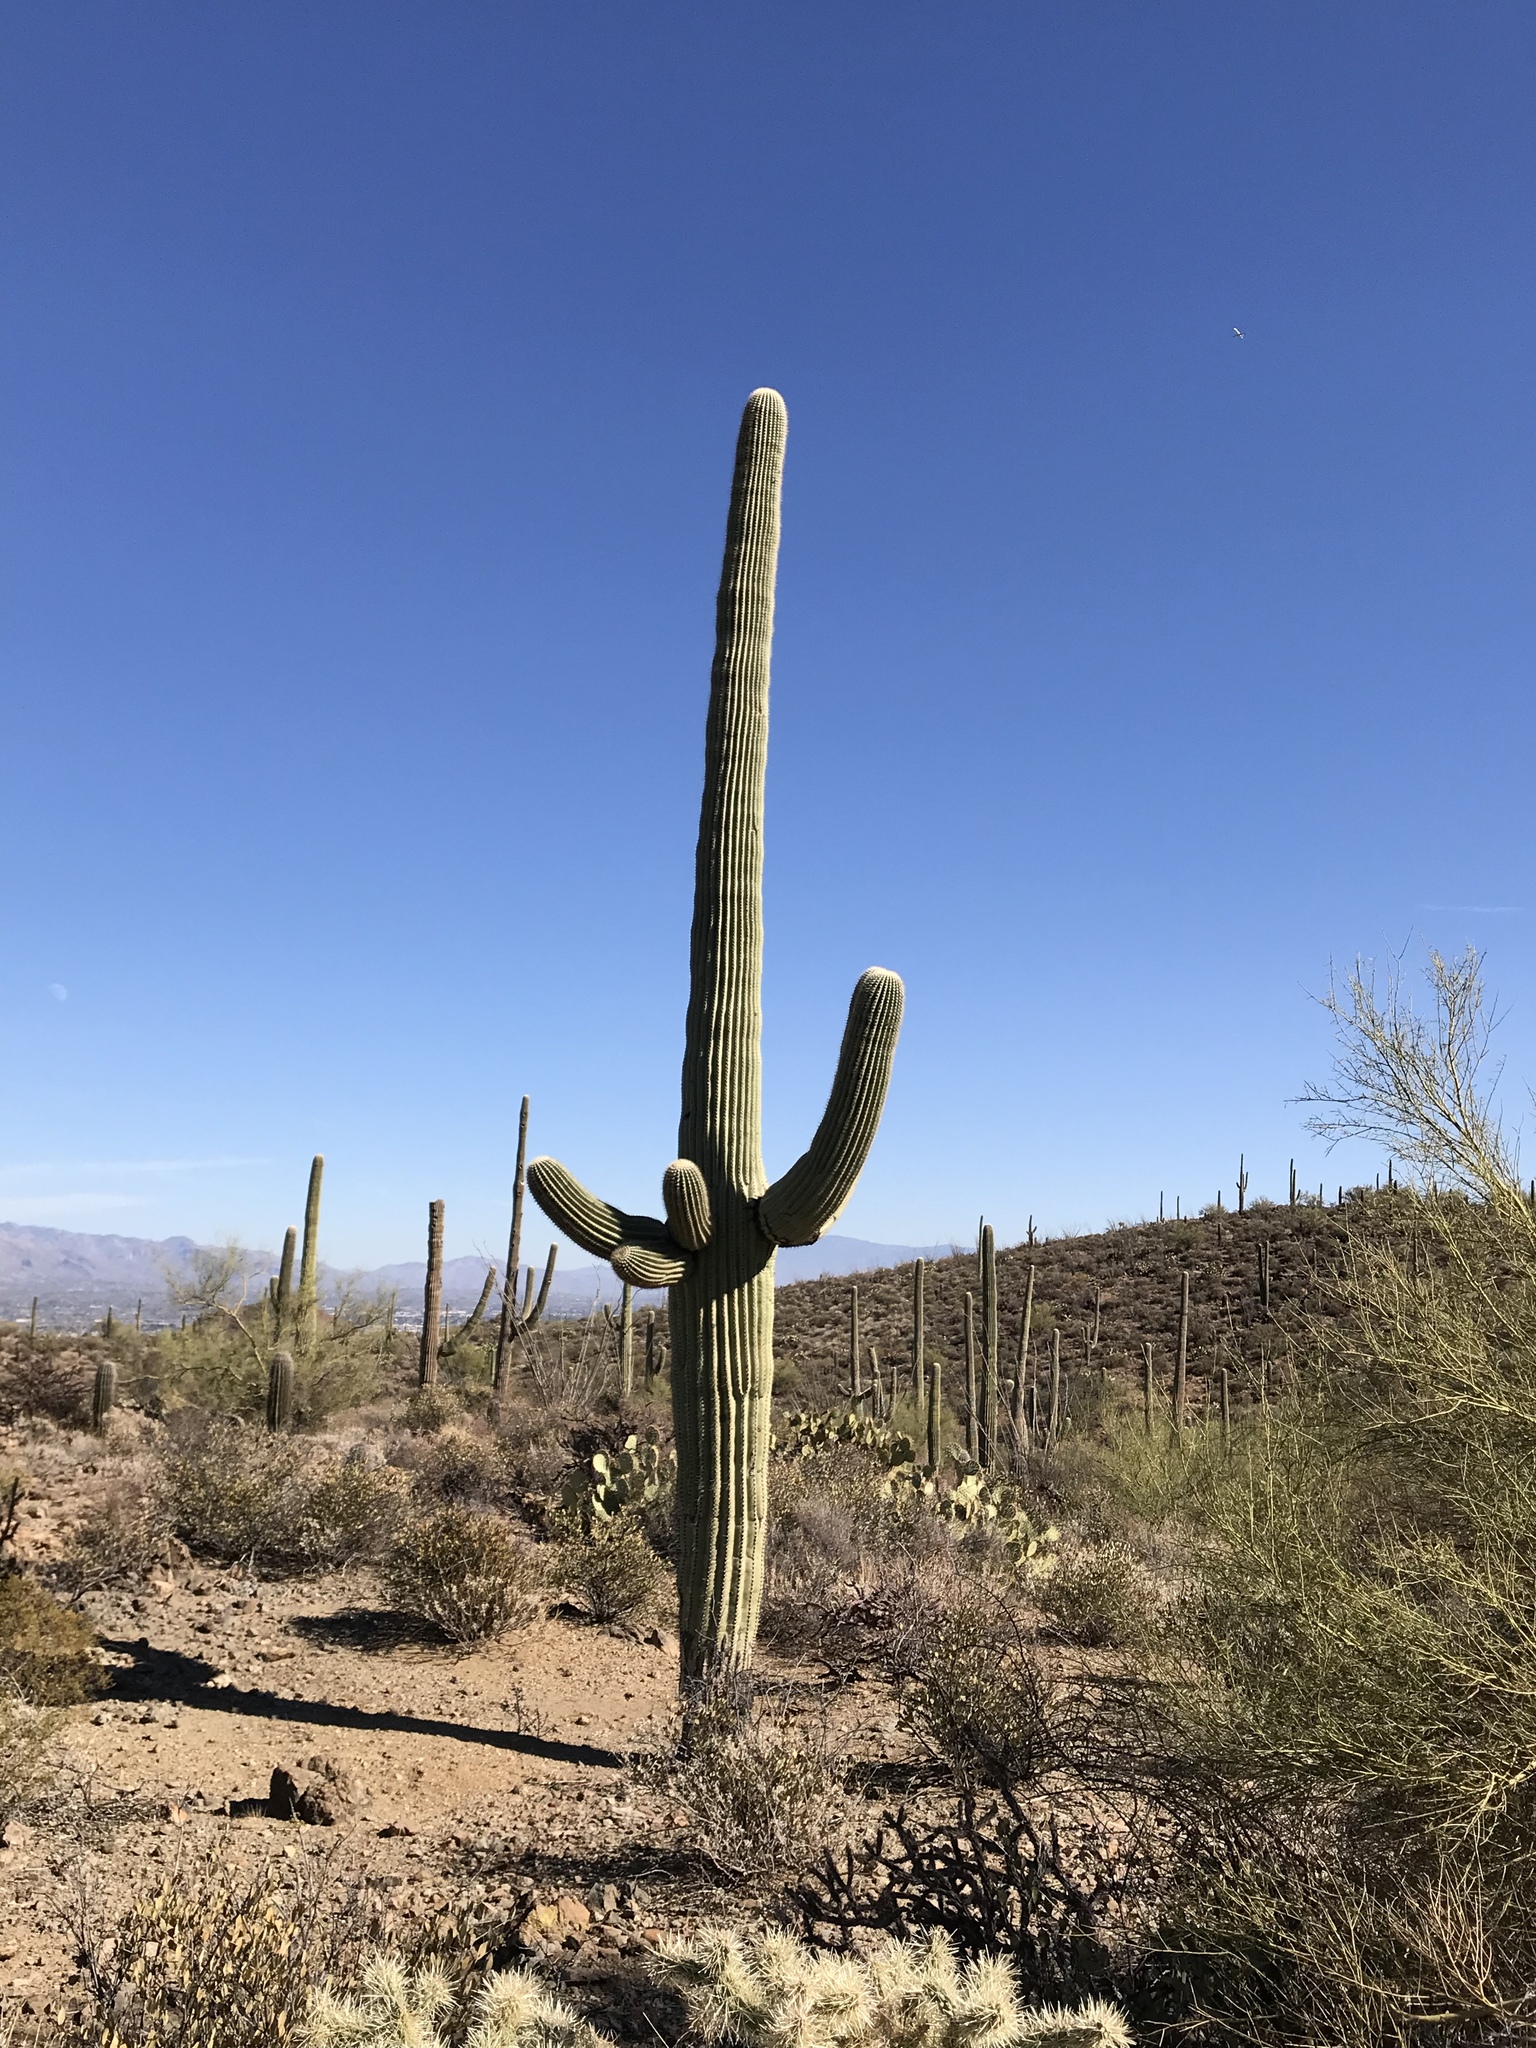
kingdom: Plantae
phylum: Tracheophyta
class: Magnoliopsida
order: Caryophyllales
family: Cactaceae
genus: Carnegiea
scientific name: Carnegiea gigantea
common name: Saguaro
